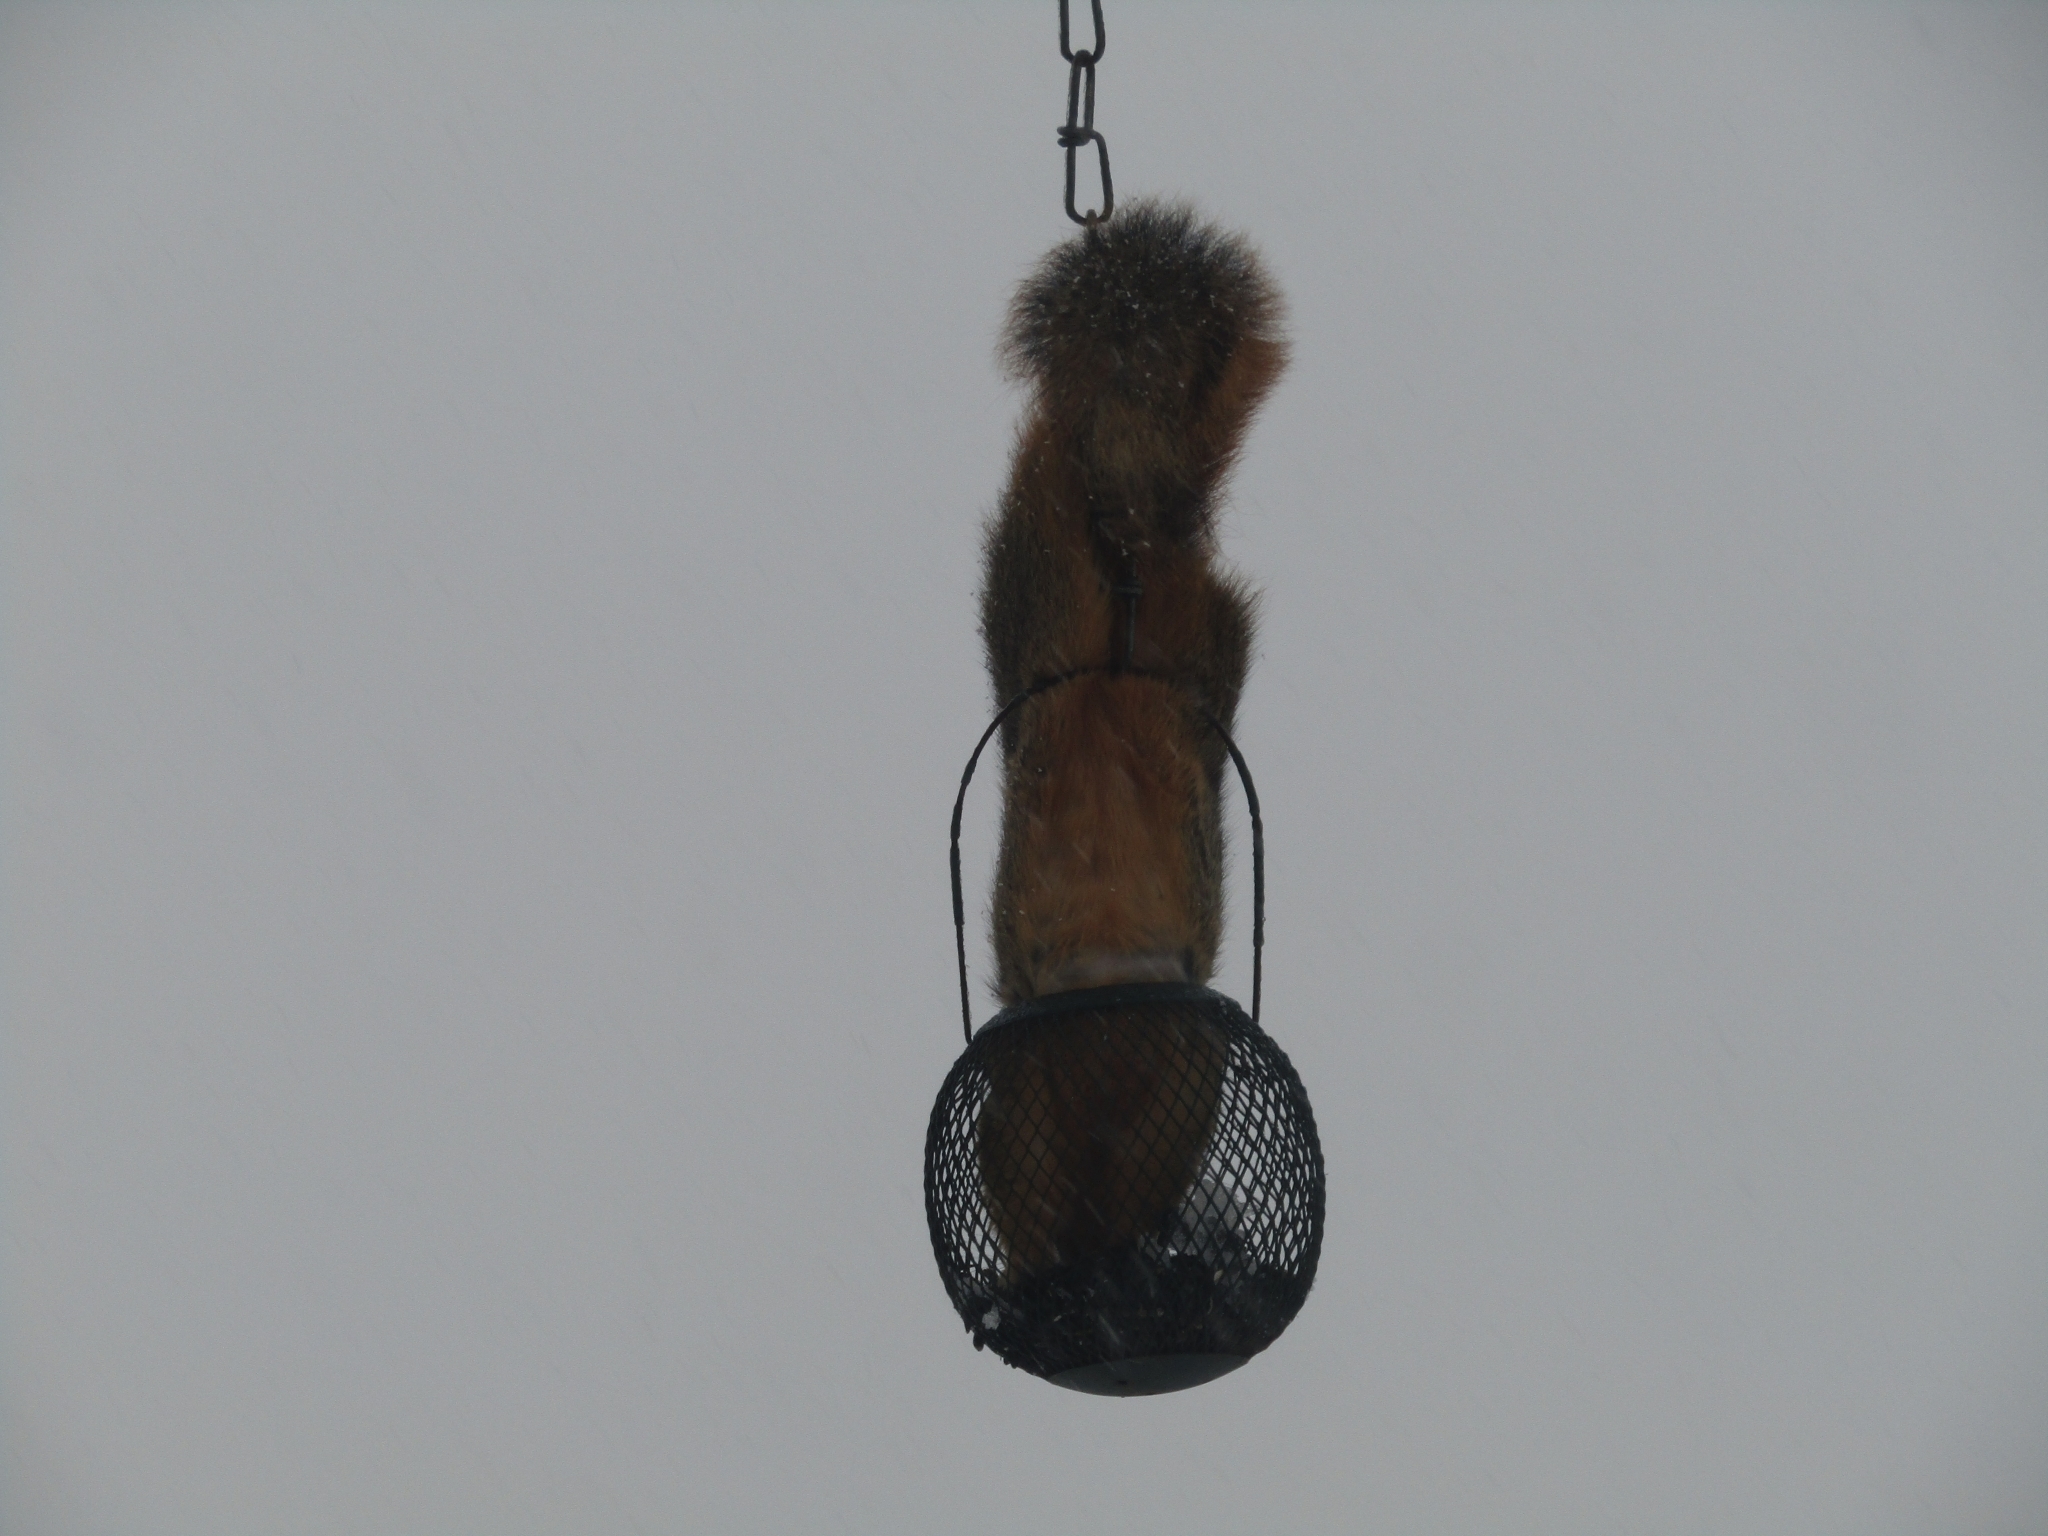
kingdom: Animalia
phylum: Chordata
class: Mammalia
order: Rodentia
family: Sciuridae
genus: Sciurus
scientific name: Sciurus niger
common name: Fox squirrel
